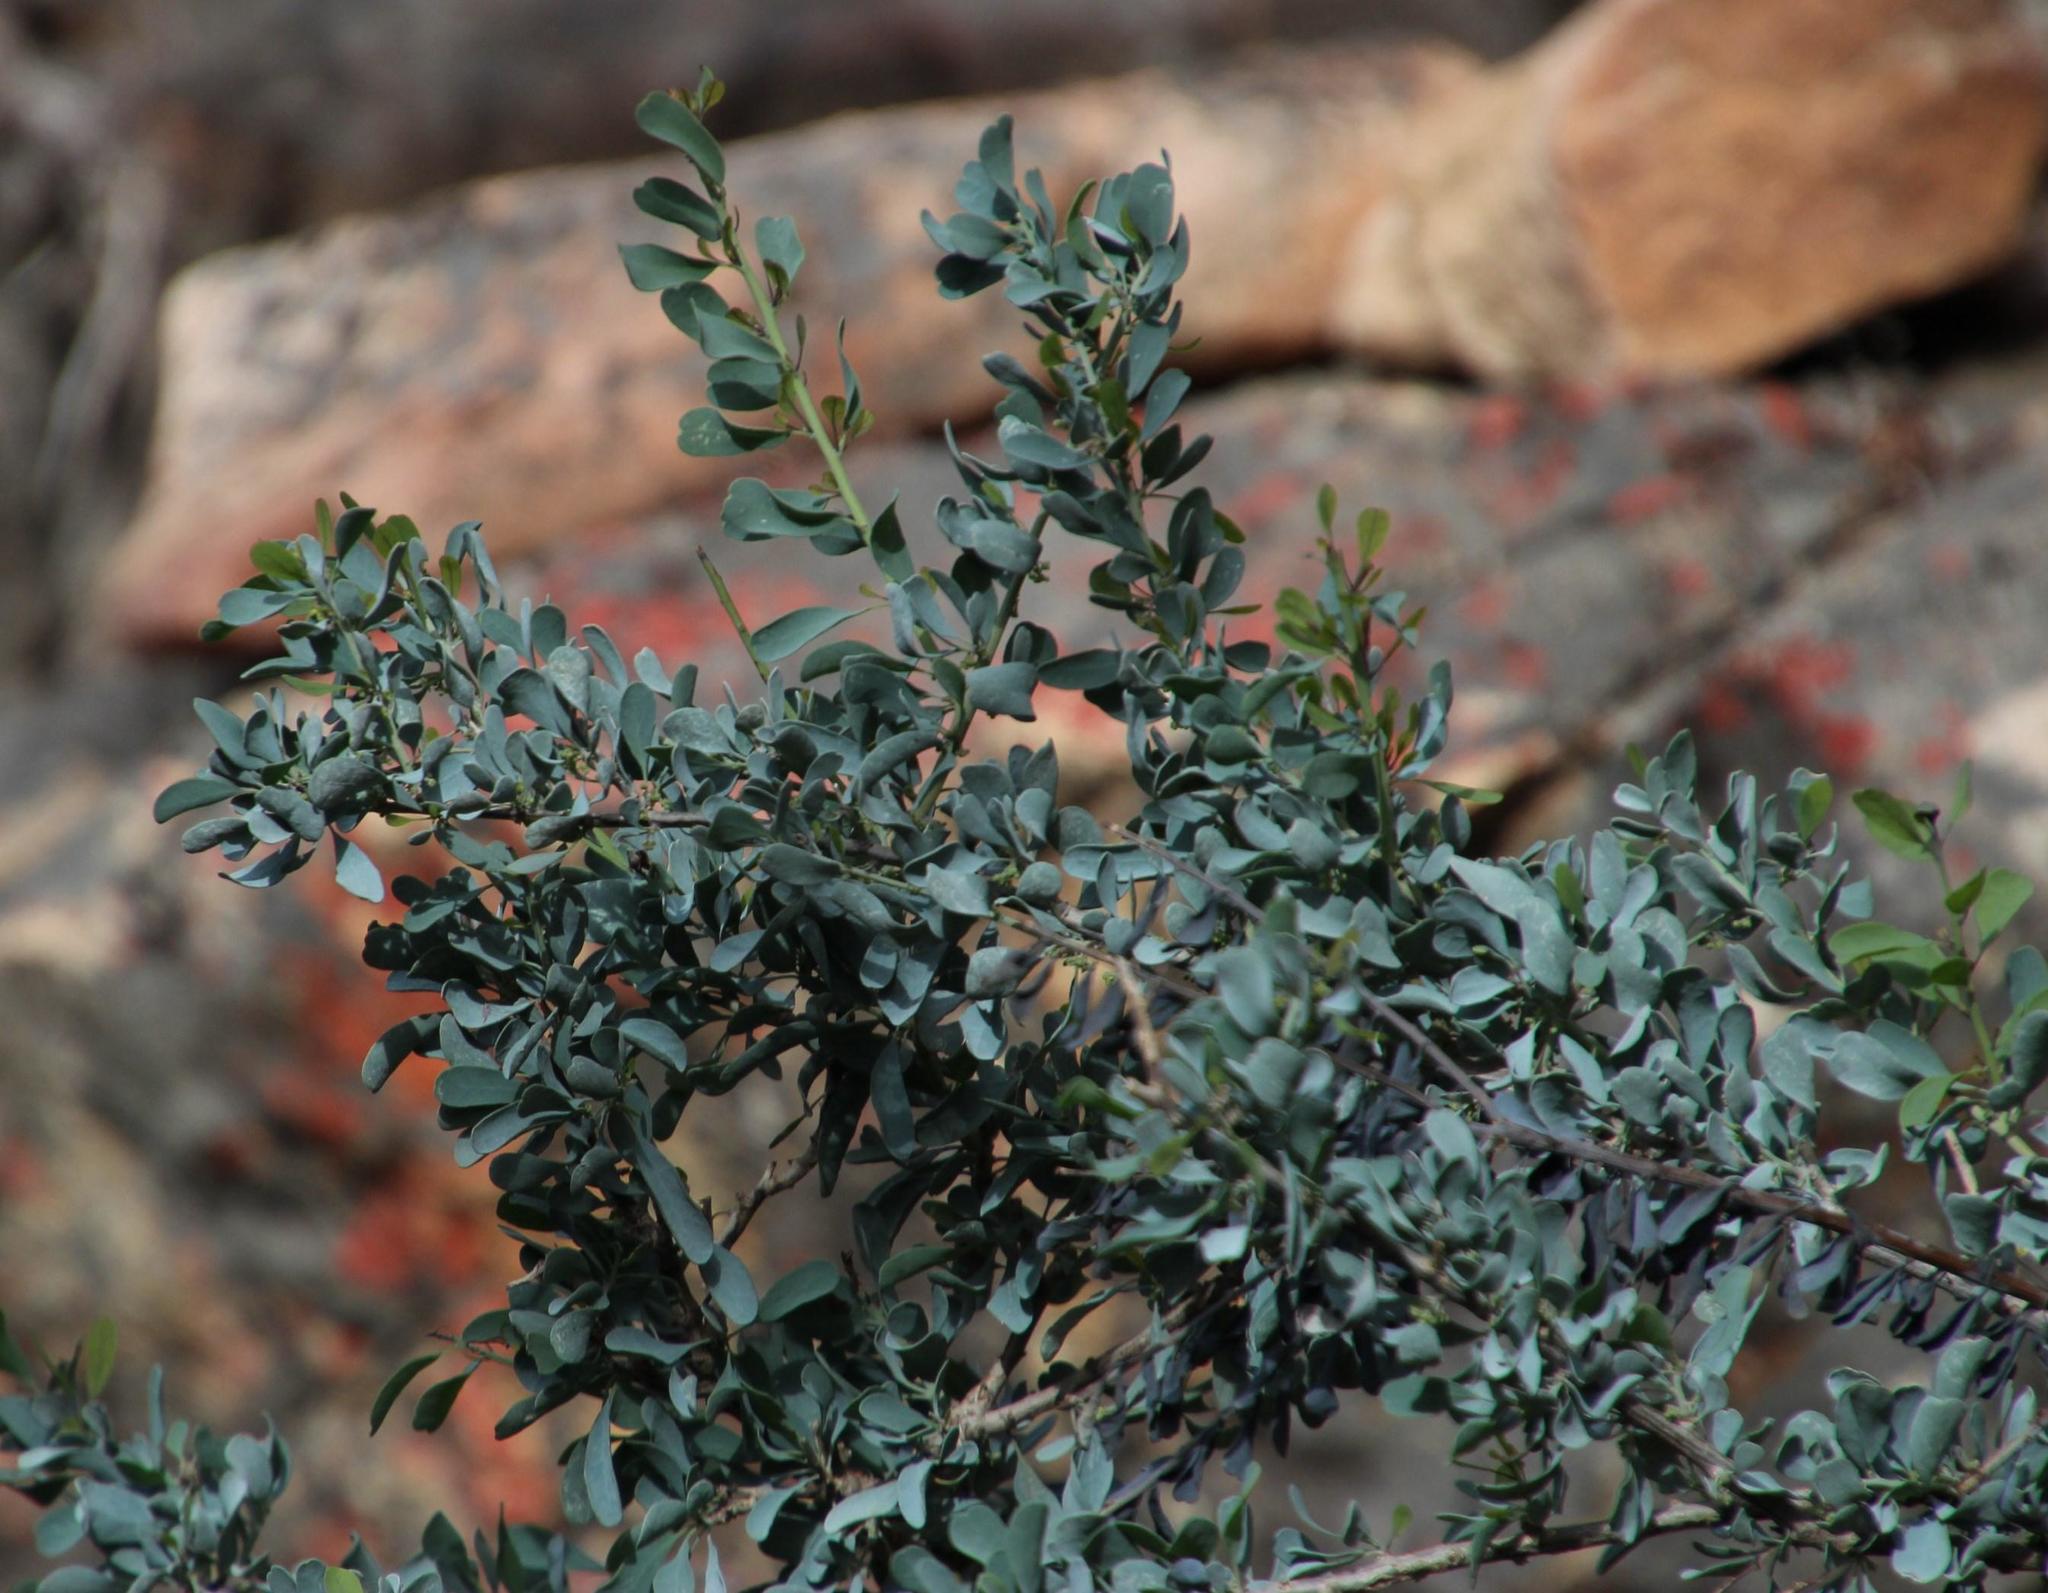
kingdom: Plantae
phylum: Tracheophyta
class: Magnoliopsida
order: Ranunculales
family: Menispermaceae
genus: Antizoma
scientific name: Antizoma miersiana
